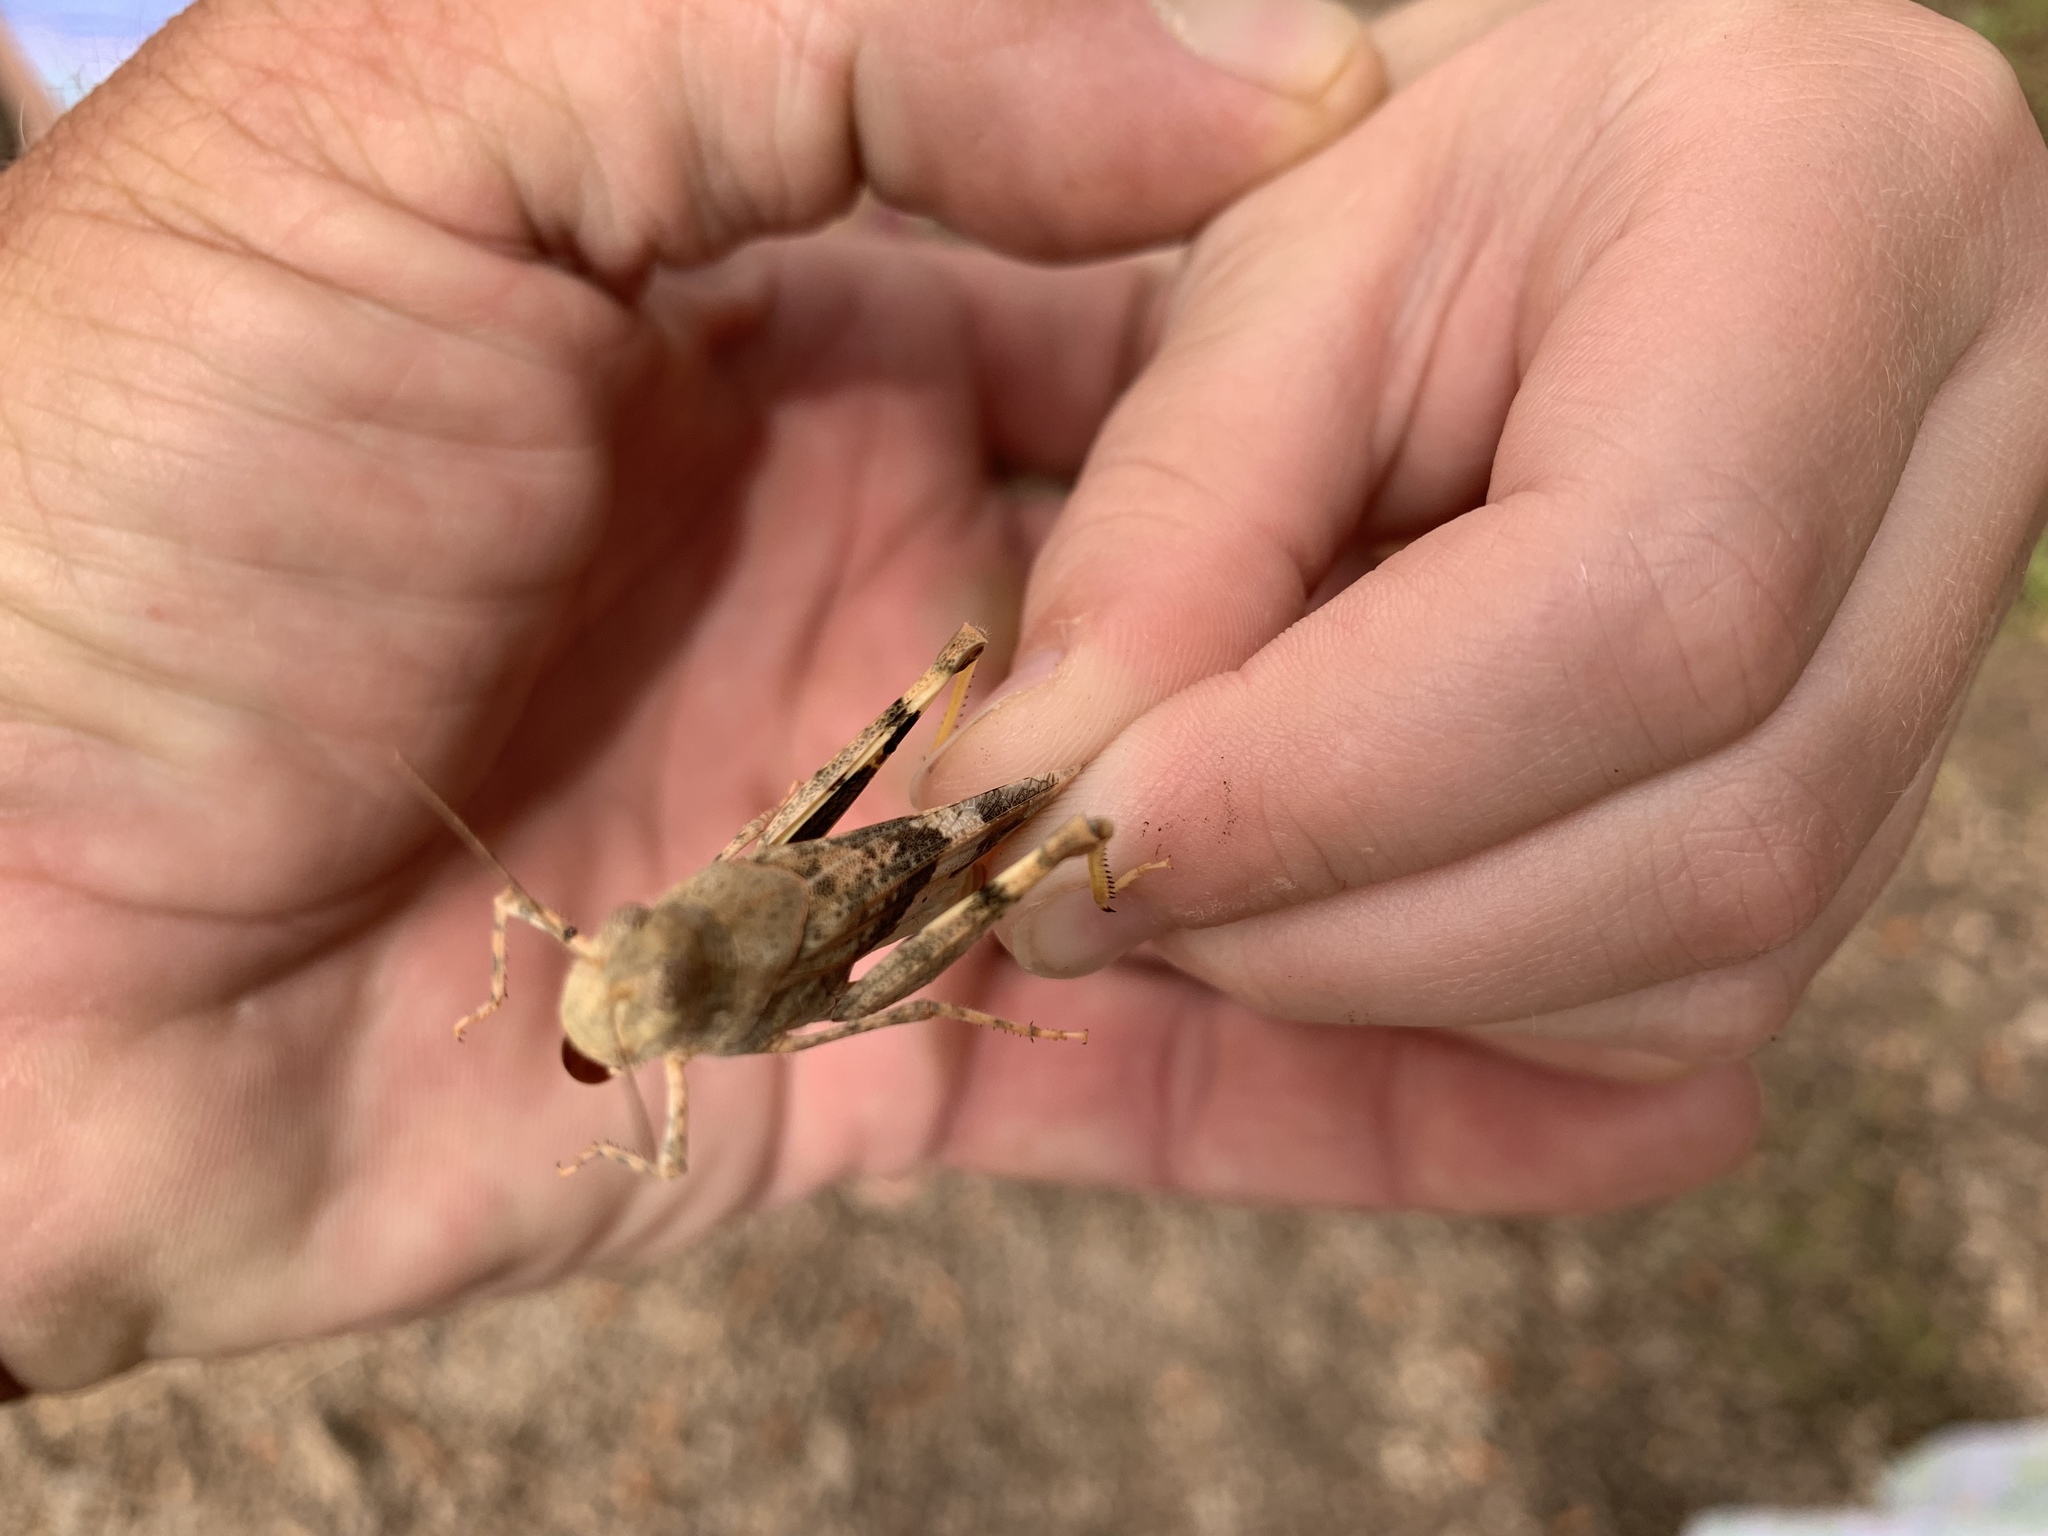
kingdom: Animalia
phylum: Arthropoda
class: Insecta
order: Orthoptera
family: Acrididae
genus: Trimerotropis
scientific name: Trimerotropis pallidipennis
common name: Pallid-winged grasshopper
